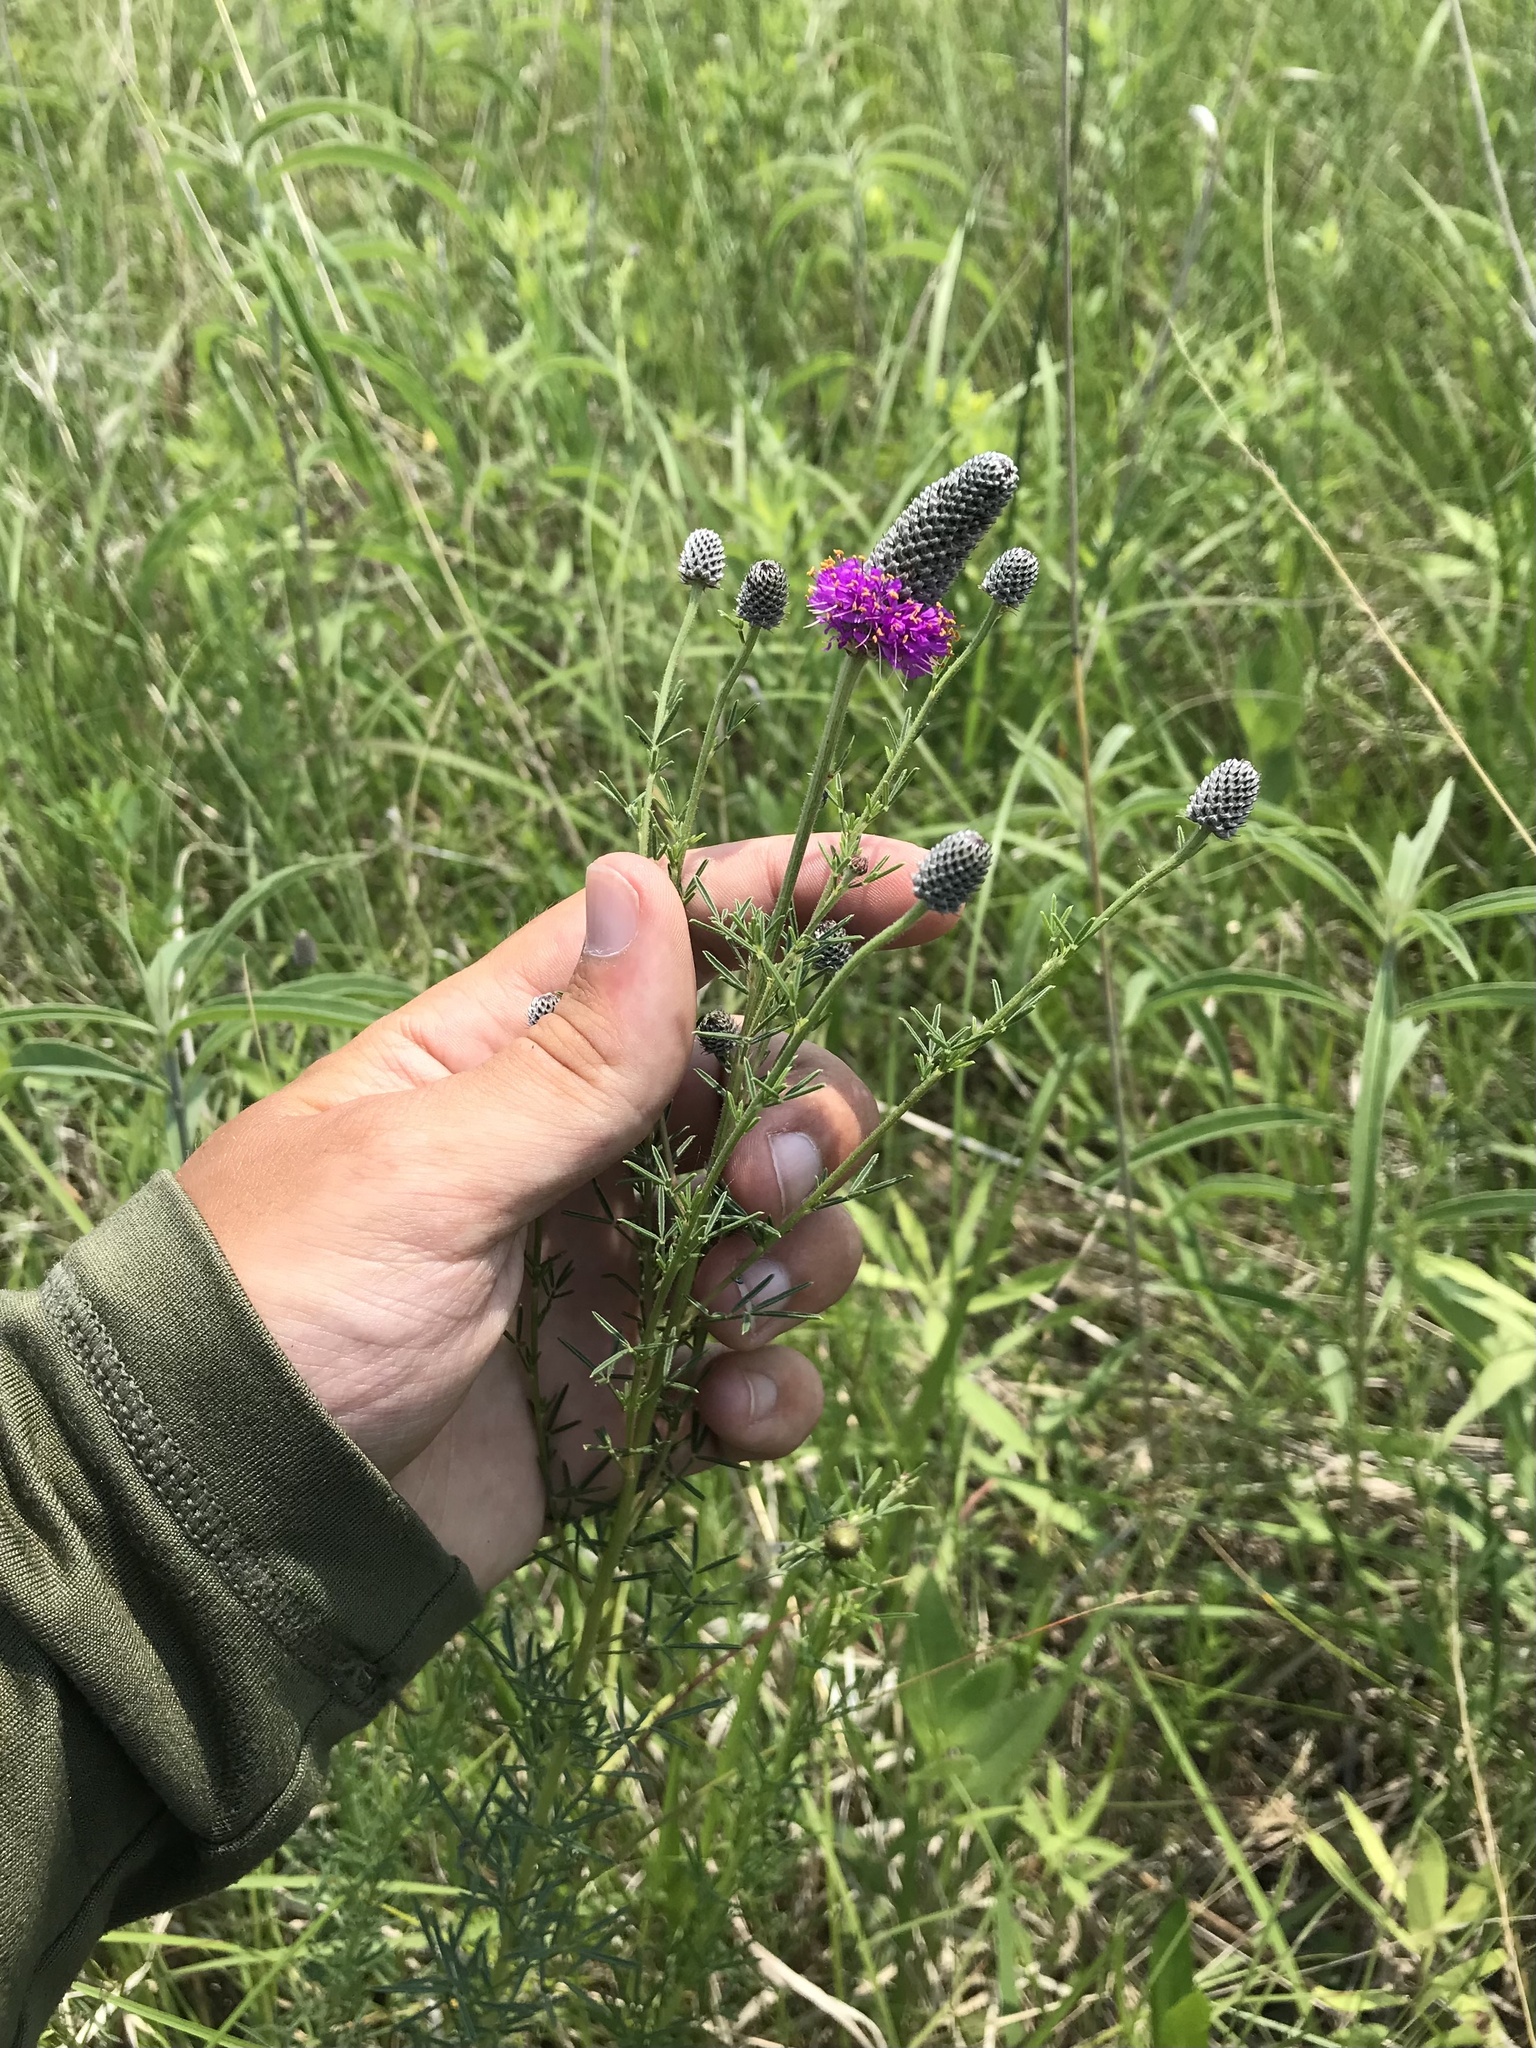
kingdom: Plantae
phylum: Tracheophyta
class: Magnoliopsida
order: Fabales
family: Fabaceae
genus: Dalea
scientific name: Dalea purpurea
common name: Purple prairie-clover
